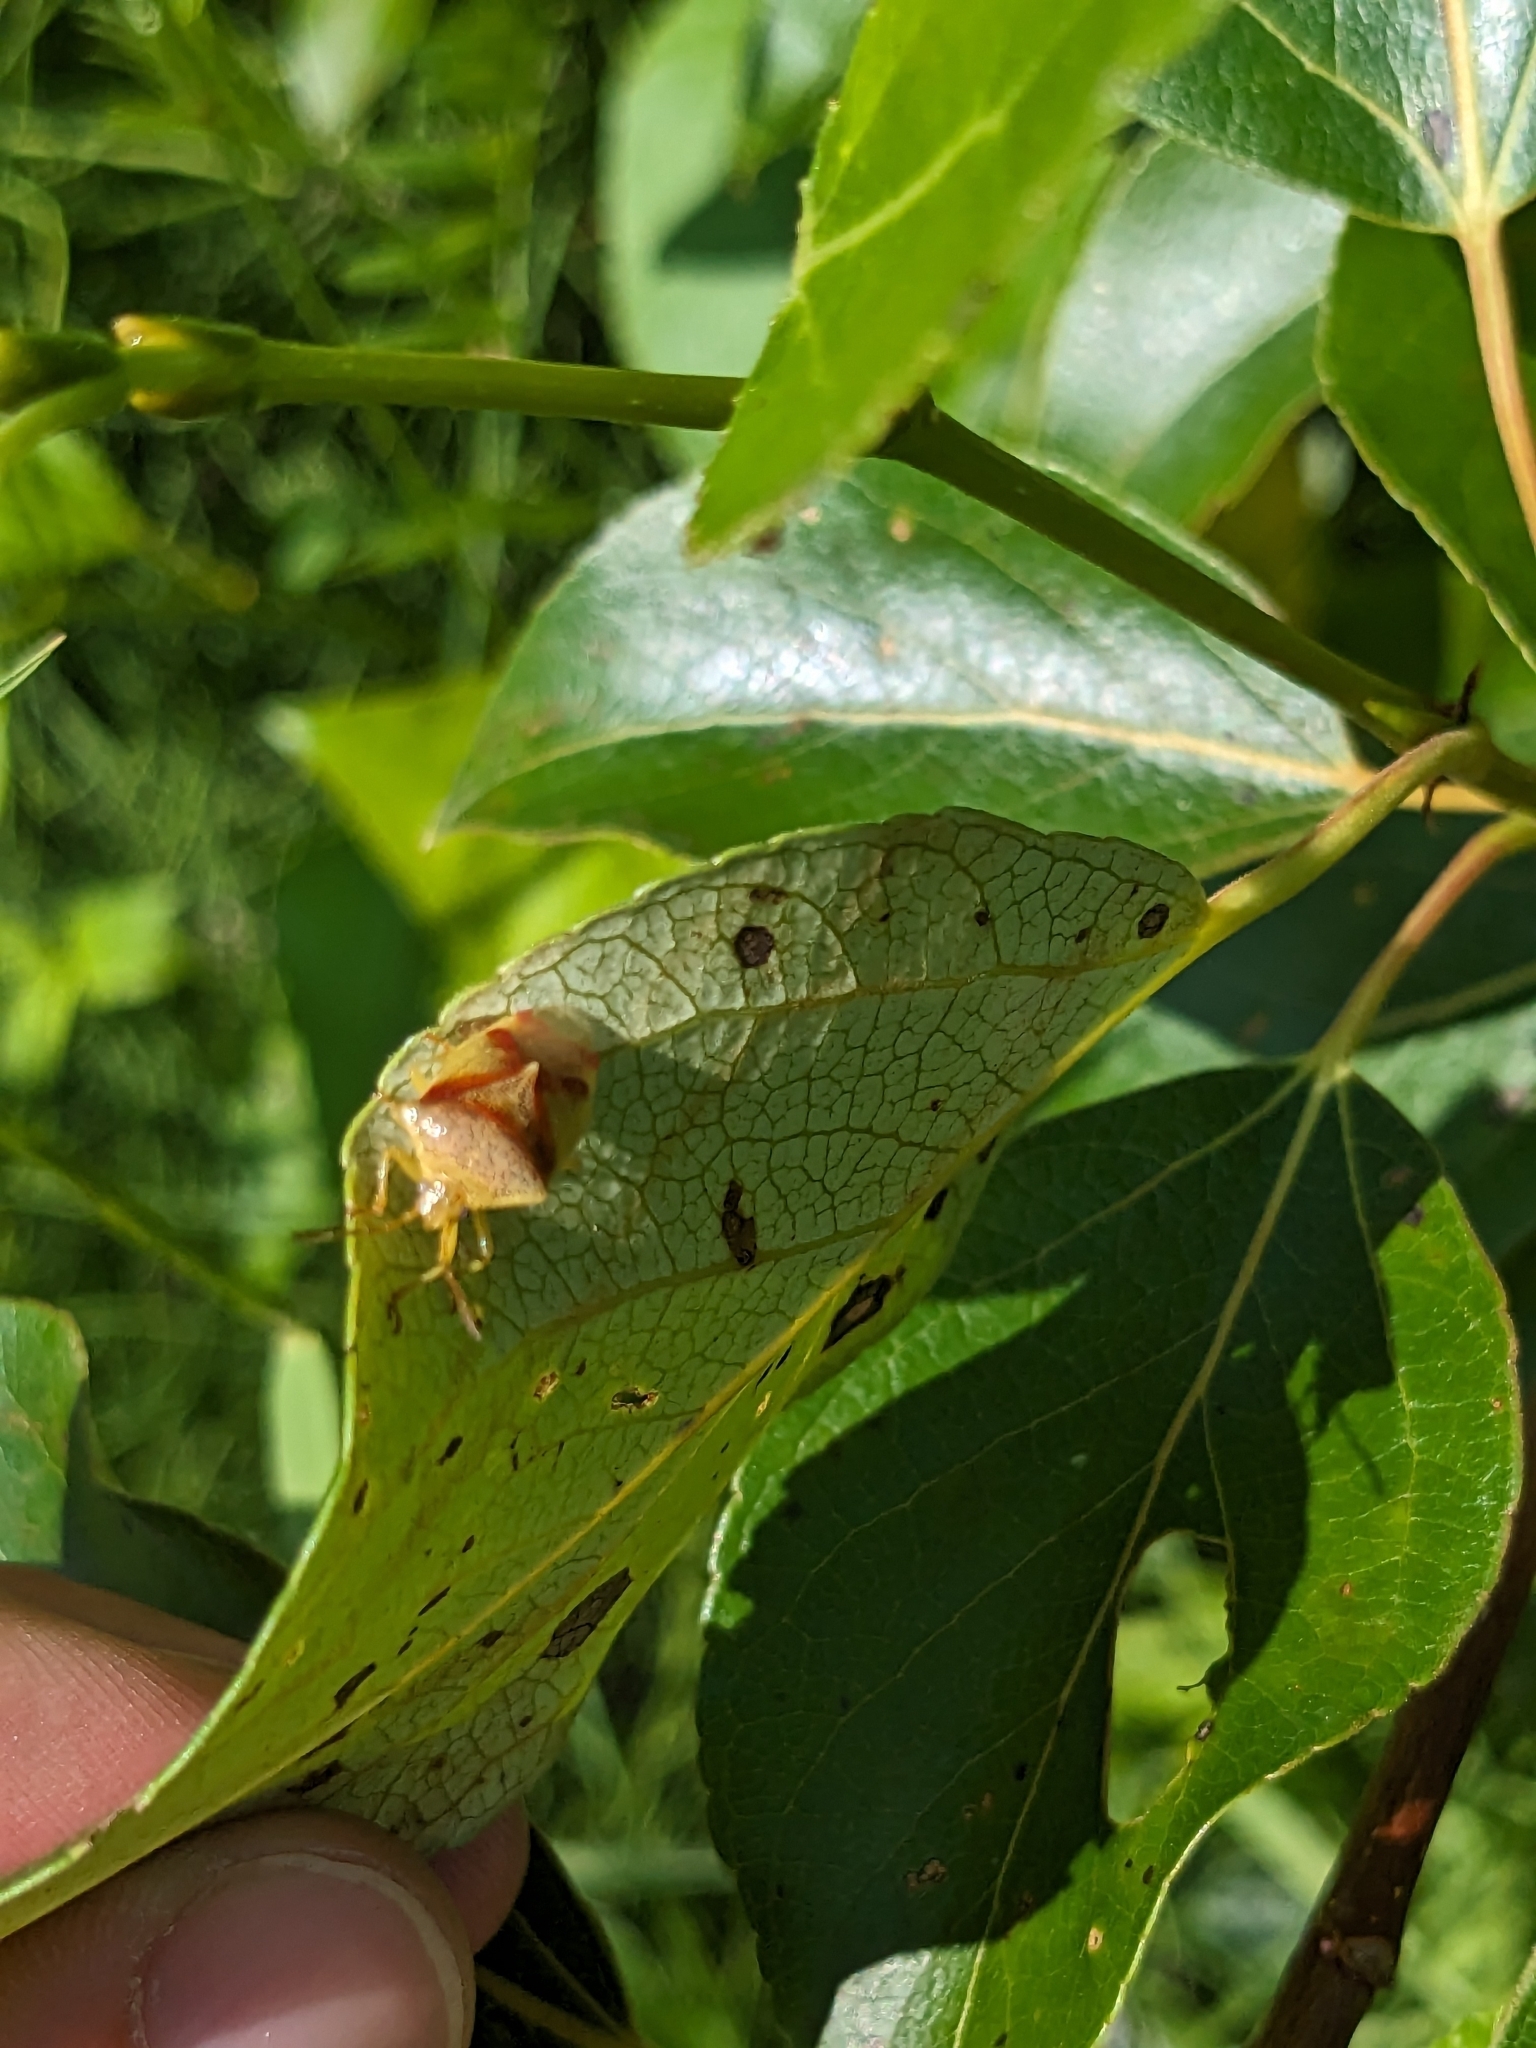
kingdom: Animalia
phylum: Arthropoda
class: Insecta
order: Hemiptera
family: Acanthosomatidae
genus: Elasmostethus
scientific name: Elasmostethus cruciatus
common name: Red-cross shield bug
